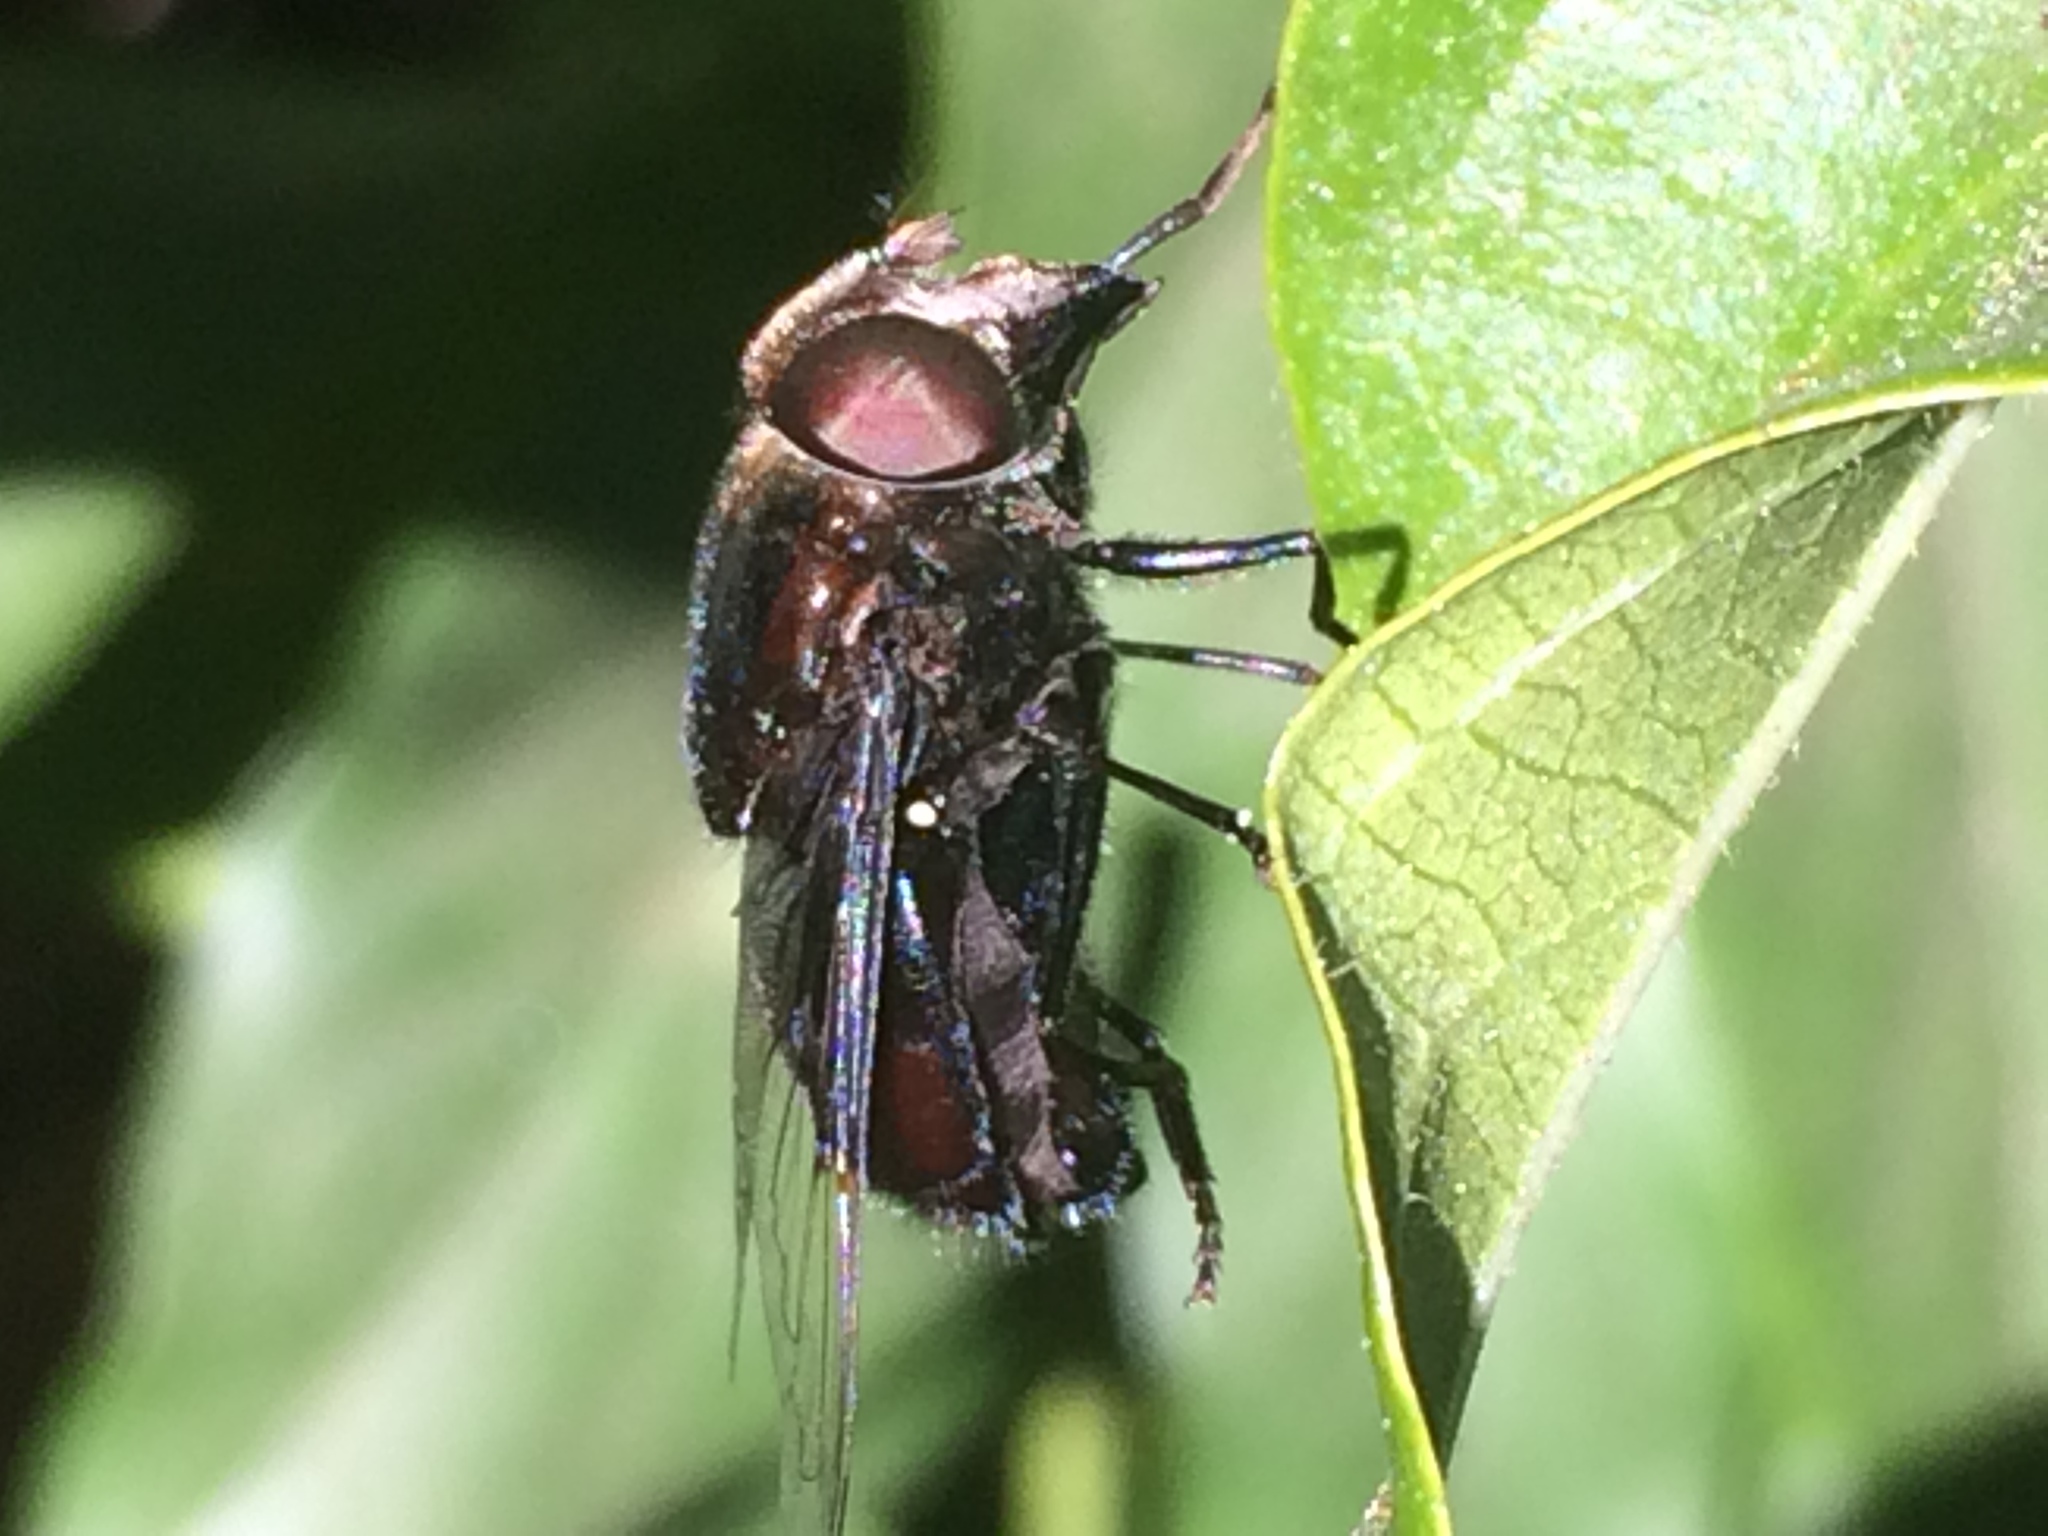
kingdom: Animalia
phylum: Arthropoda
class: Insecta
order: Diptera
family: Syrphidae
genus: Copestylum
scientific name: Copestylum
